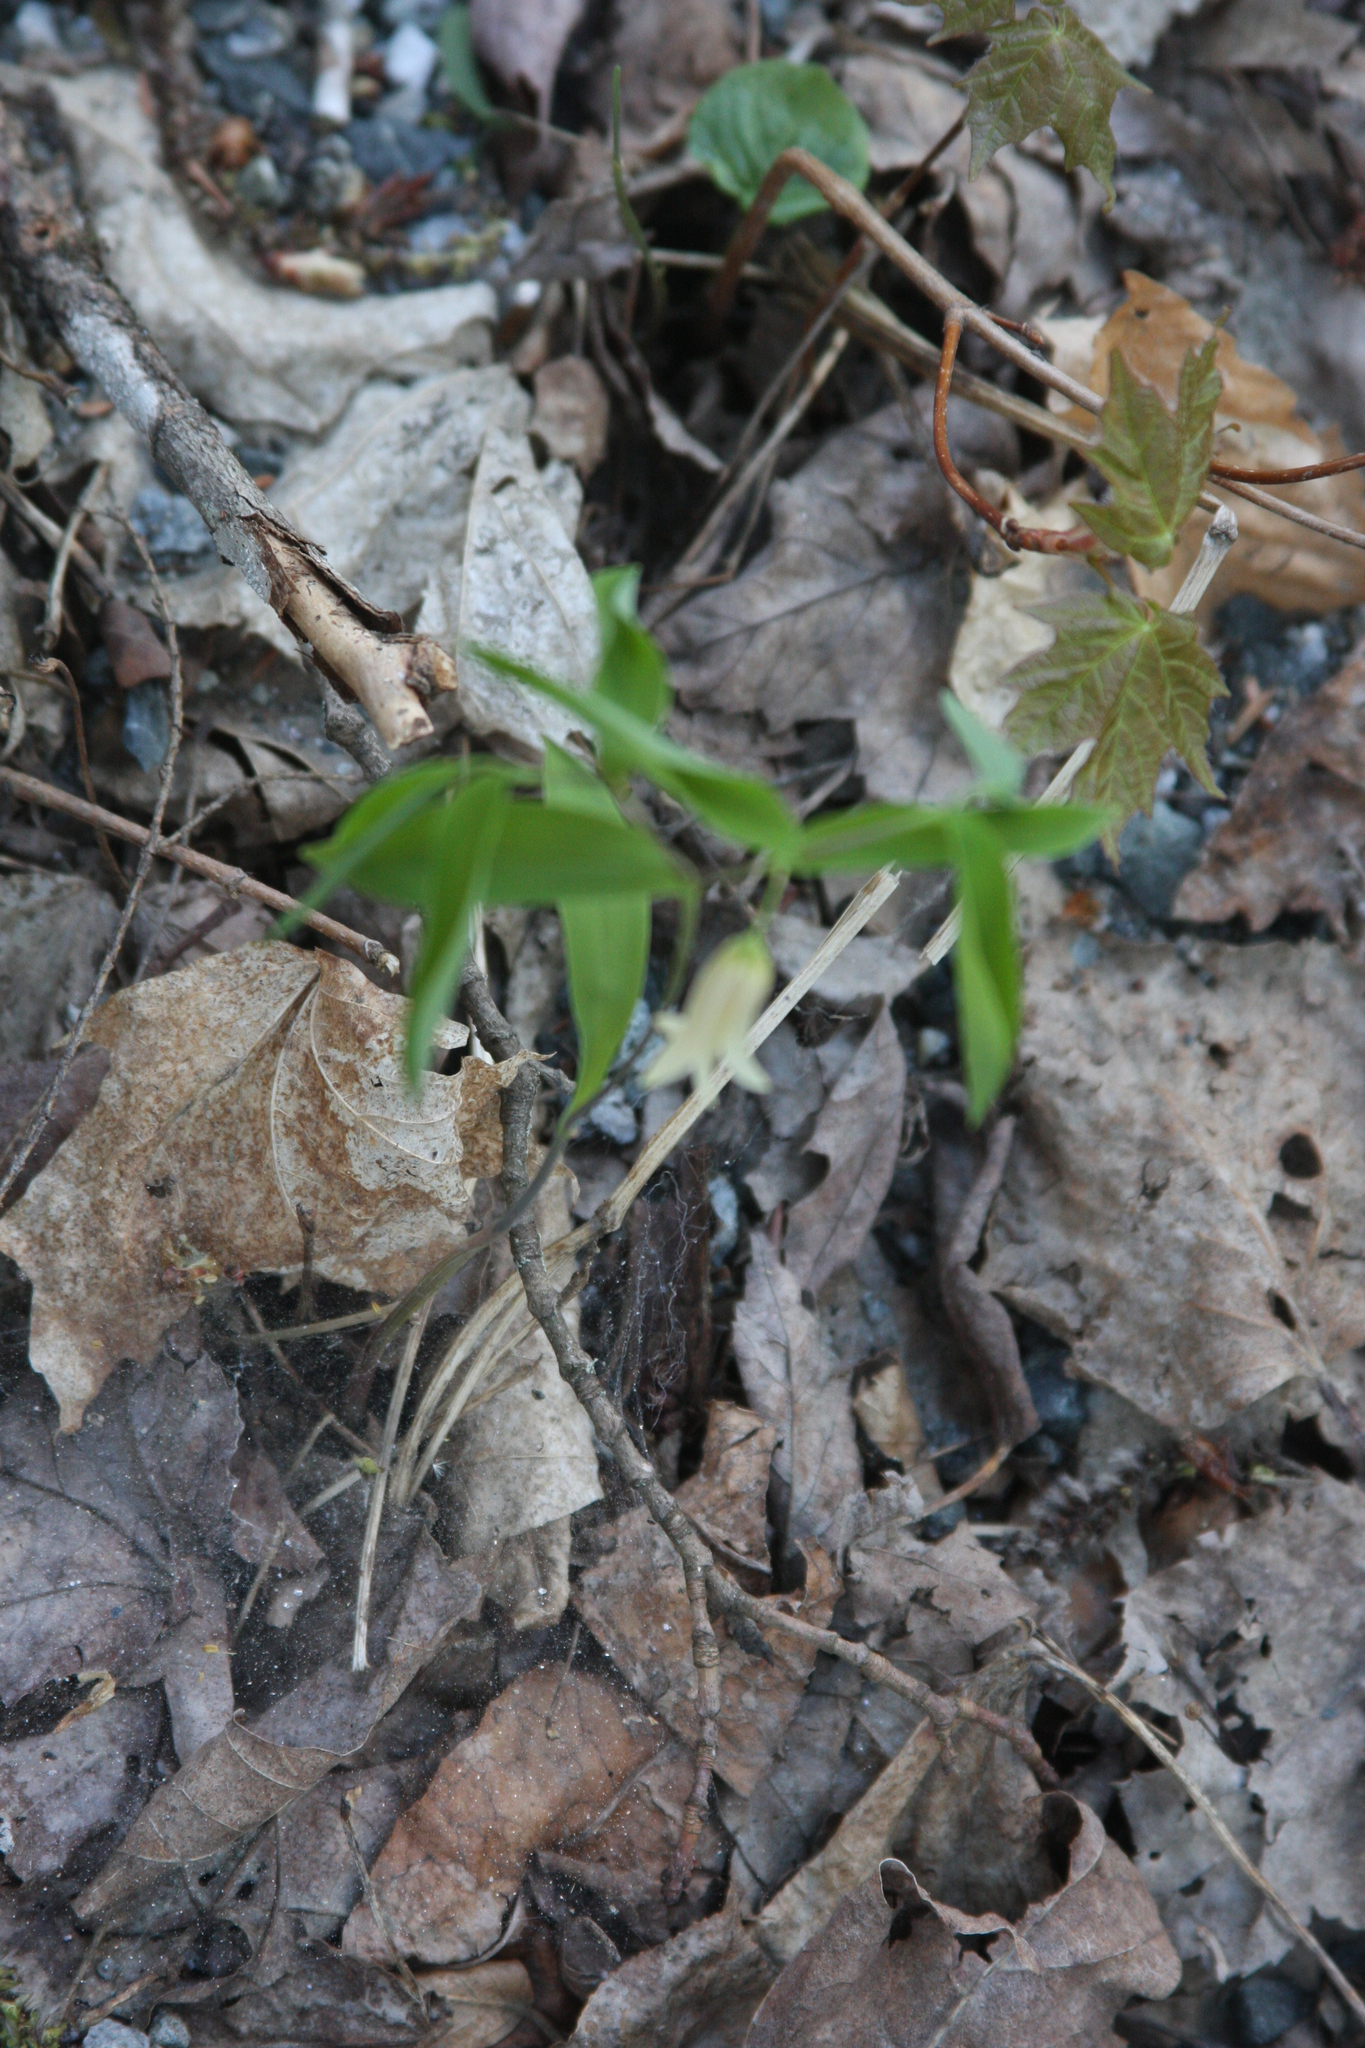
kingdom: Plantae
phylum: Tracheophyta
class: Liliopsida
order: Liliales
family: Colchicaceae
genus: Uvularia
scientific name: Uvularia sessilifolia
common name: Straw-lily
